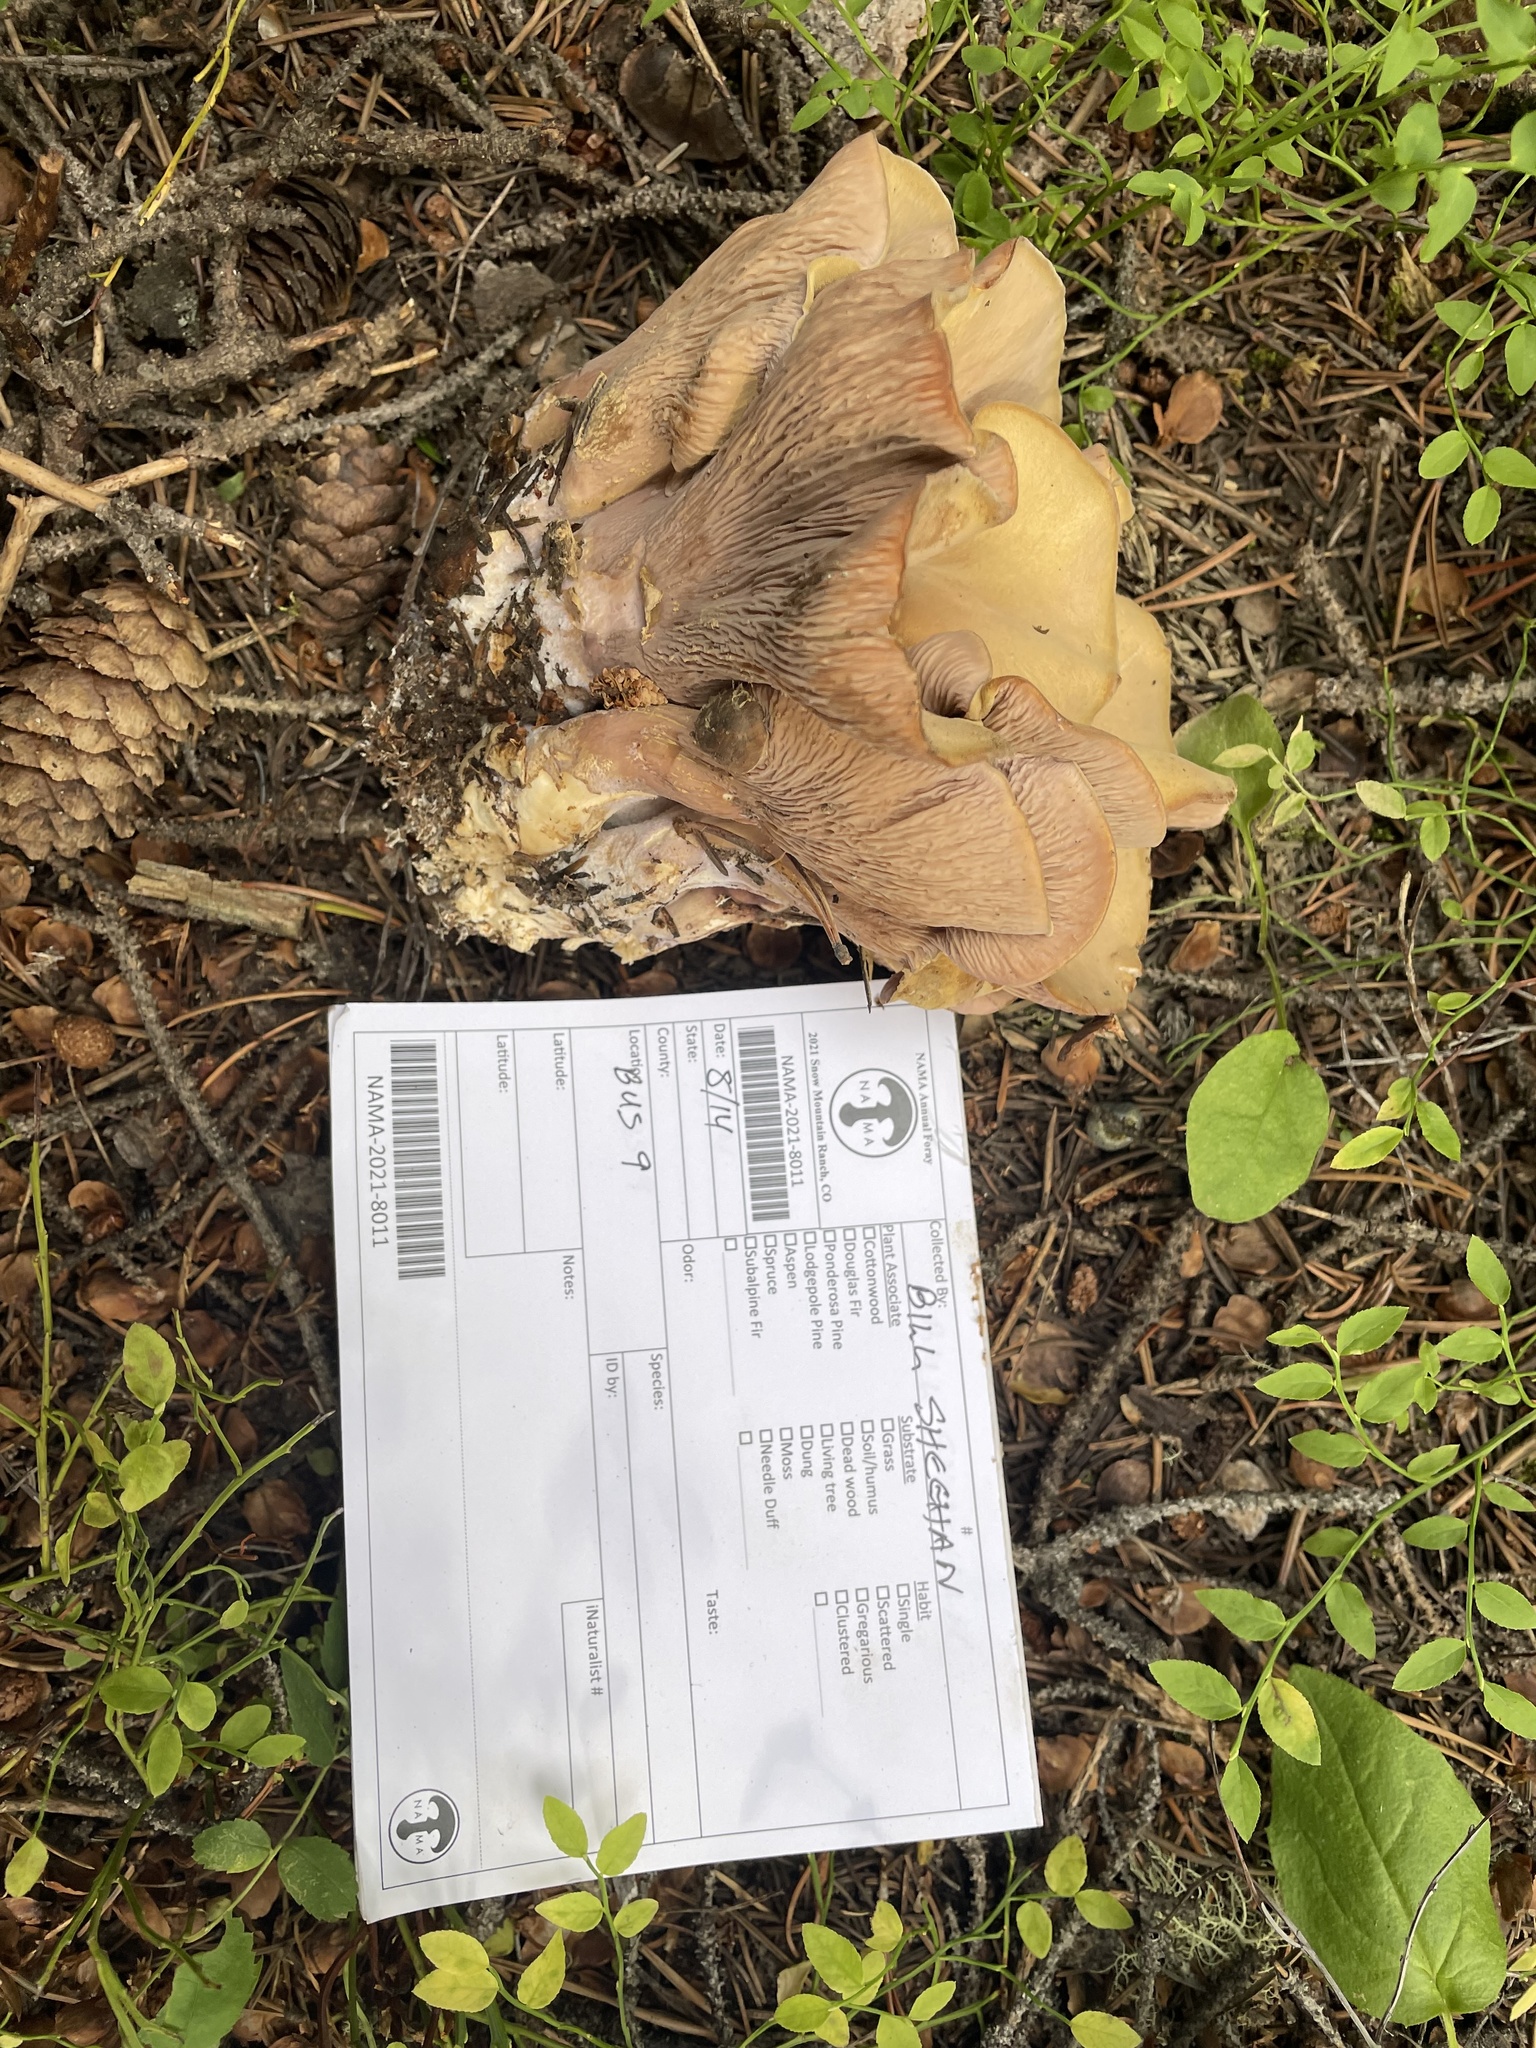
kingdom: Fungi
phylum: Basidiomycota
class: Agaricomycetes
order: Gomphales
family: Gomphaceae
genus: Gomphus
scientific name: Gomphus clavatus
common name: Pig's ear
